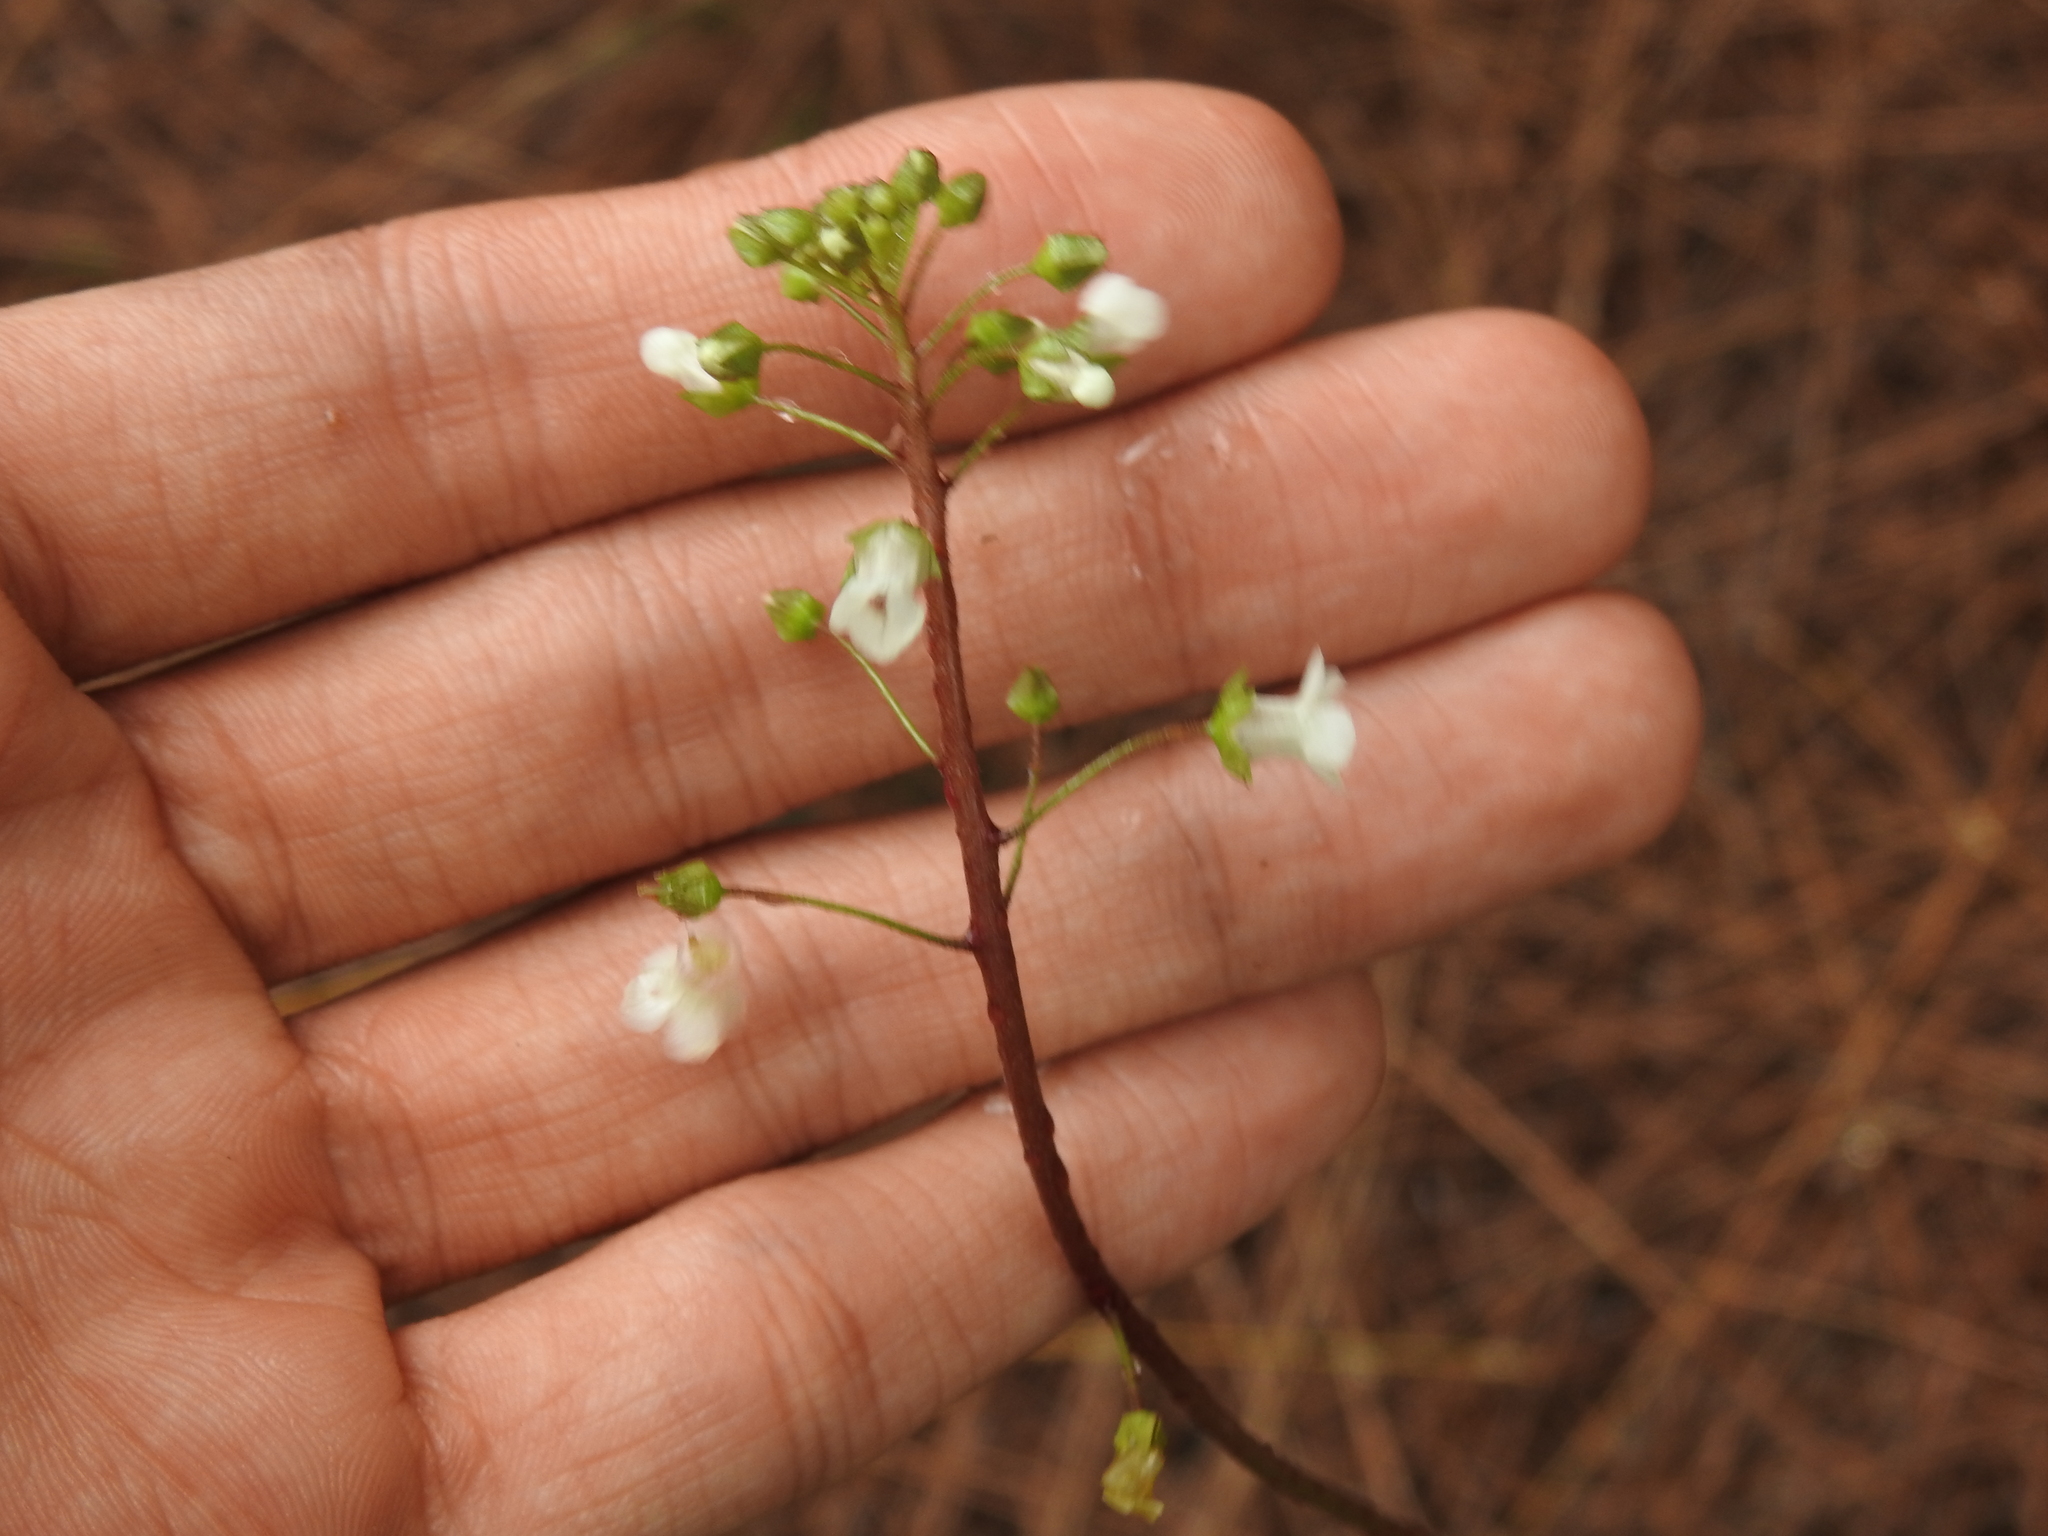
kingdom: Plantae
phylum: Tracheophyta
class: Magnoliopsida
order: Ericales
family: Primulaceae
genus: Samolus
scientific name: Samolus ebracteatus
